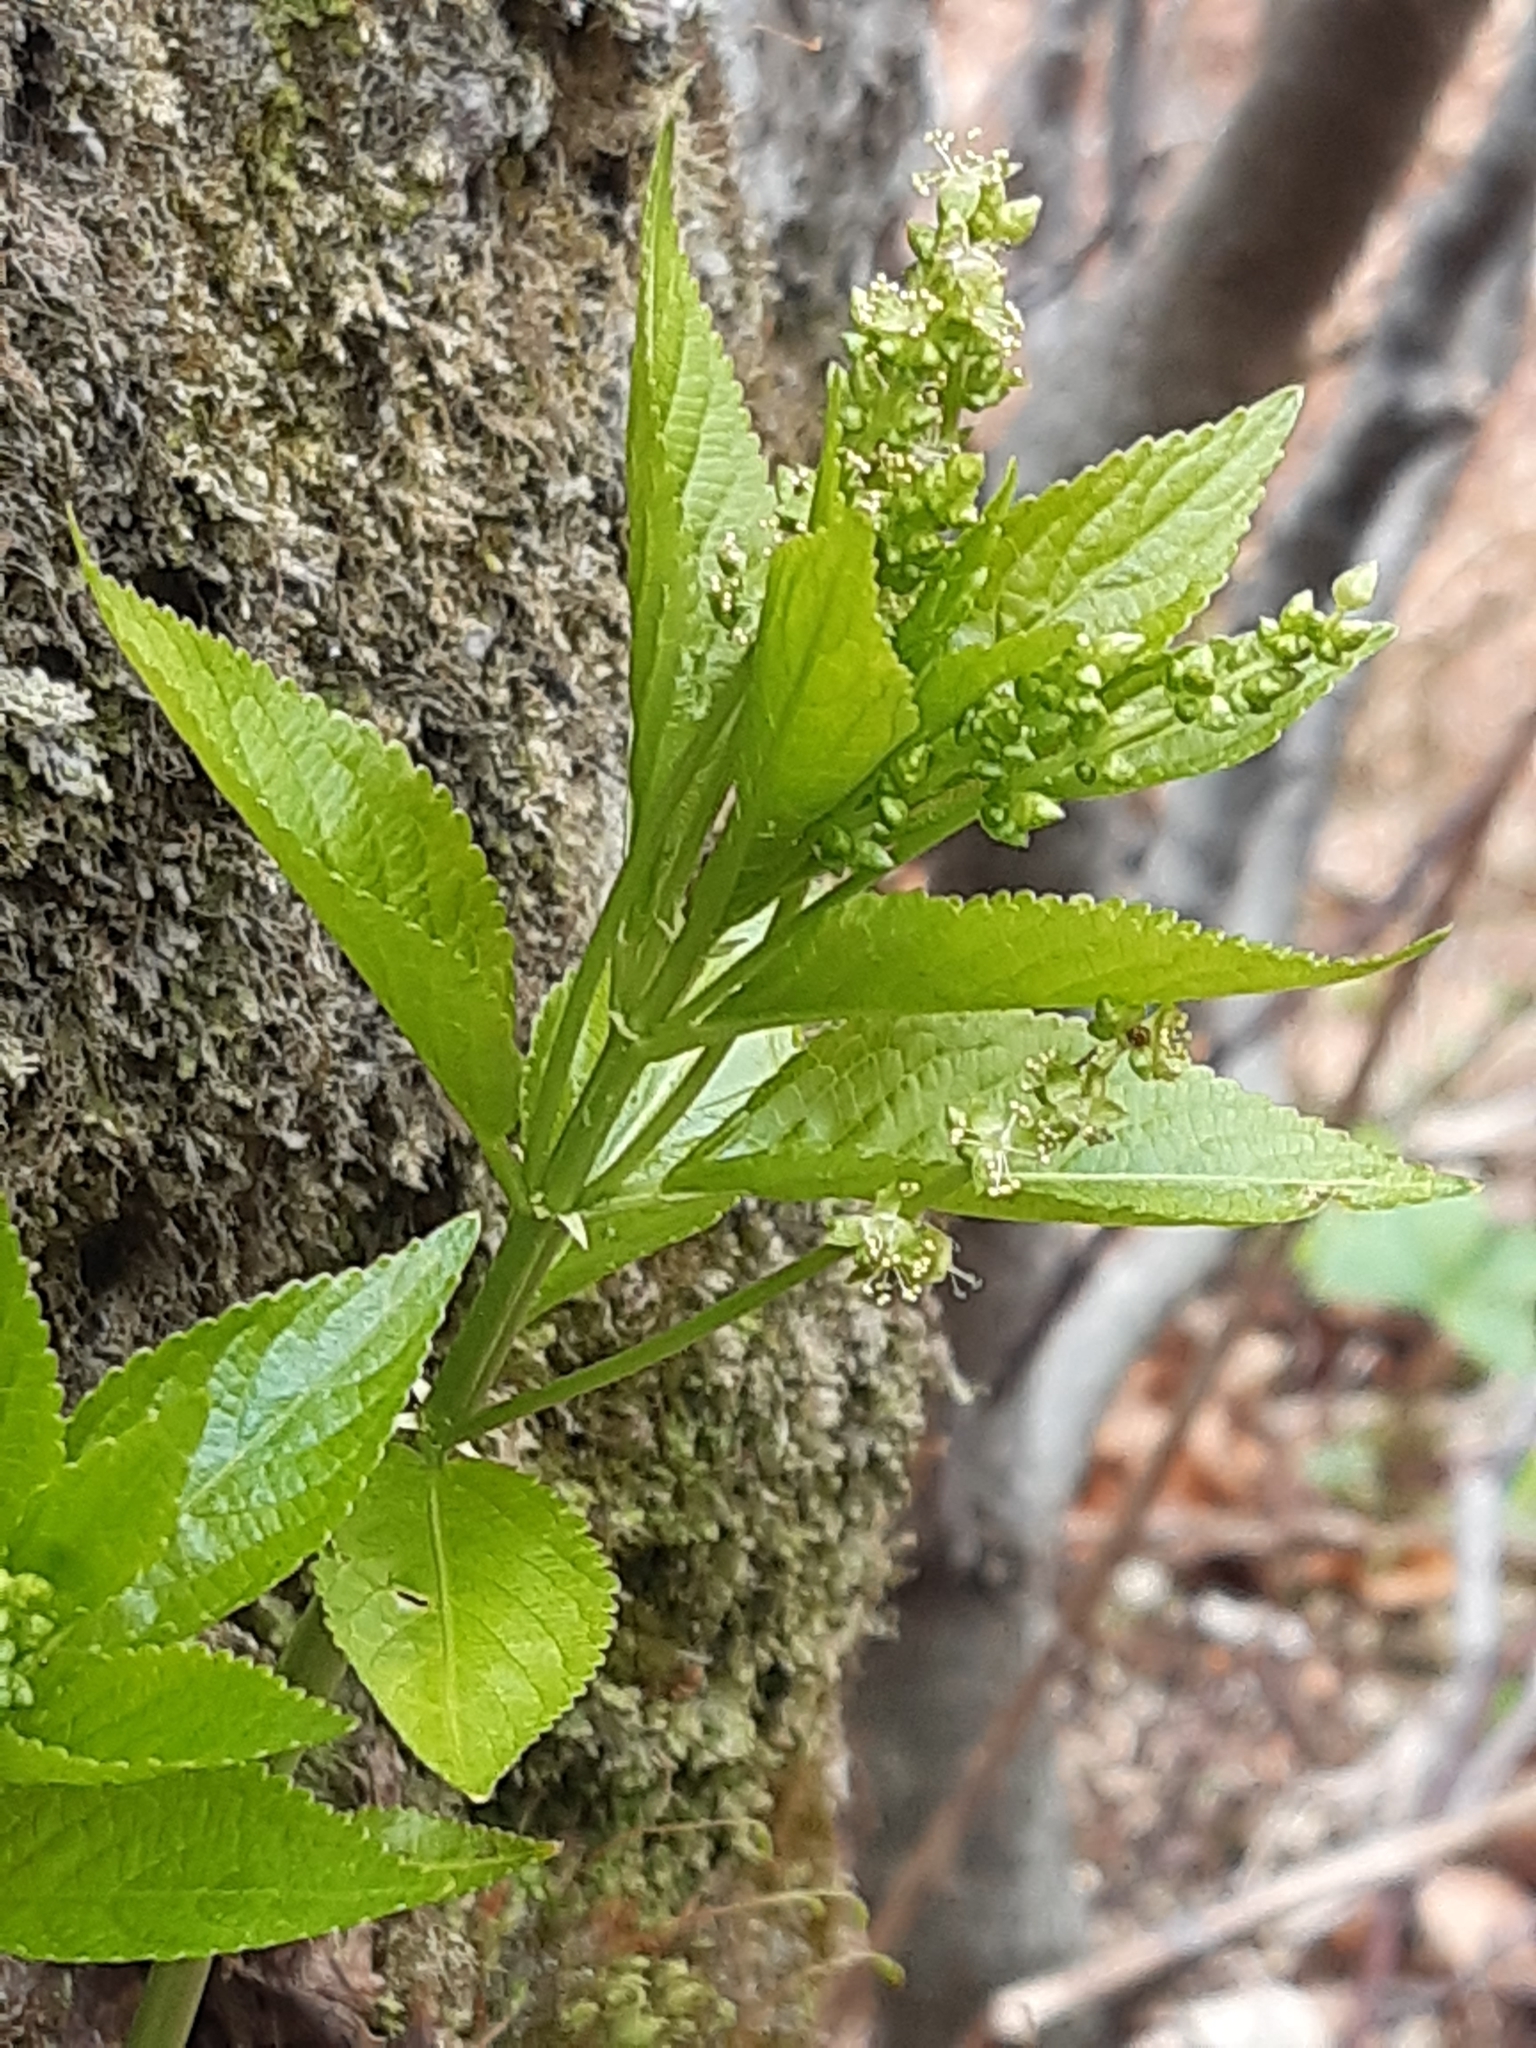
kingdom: Plantae
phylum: Tracheophyta
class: Magnoliopsida
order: Malpighiales
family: Euphorbiaceae
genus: Mercurialis
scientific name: Mercurialis perennis
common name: Dog mercury
